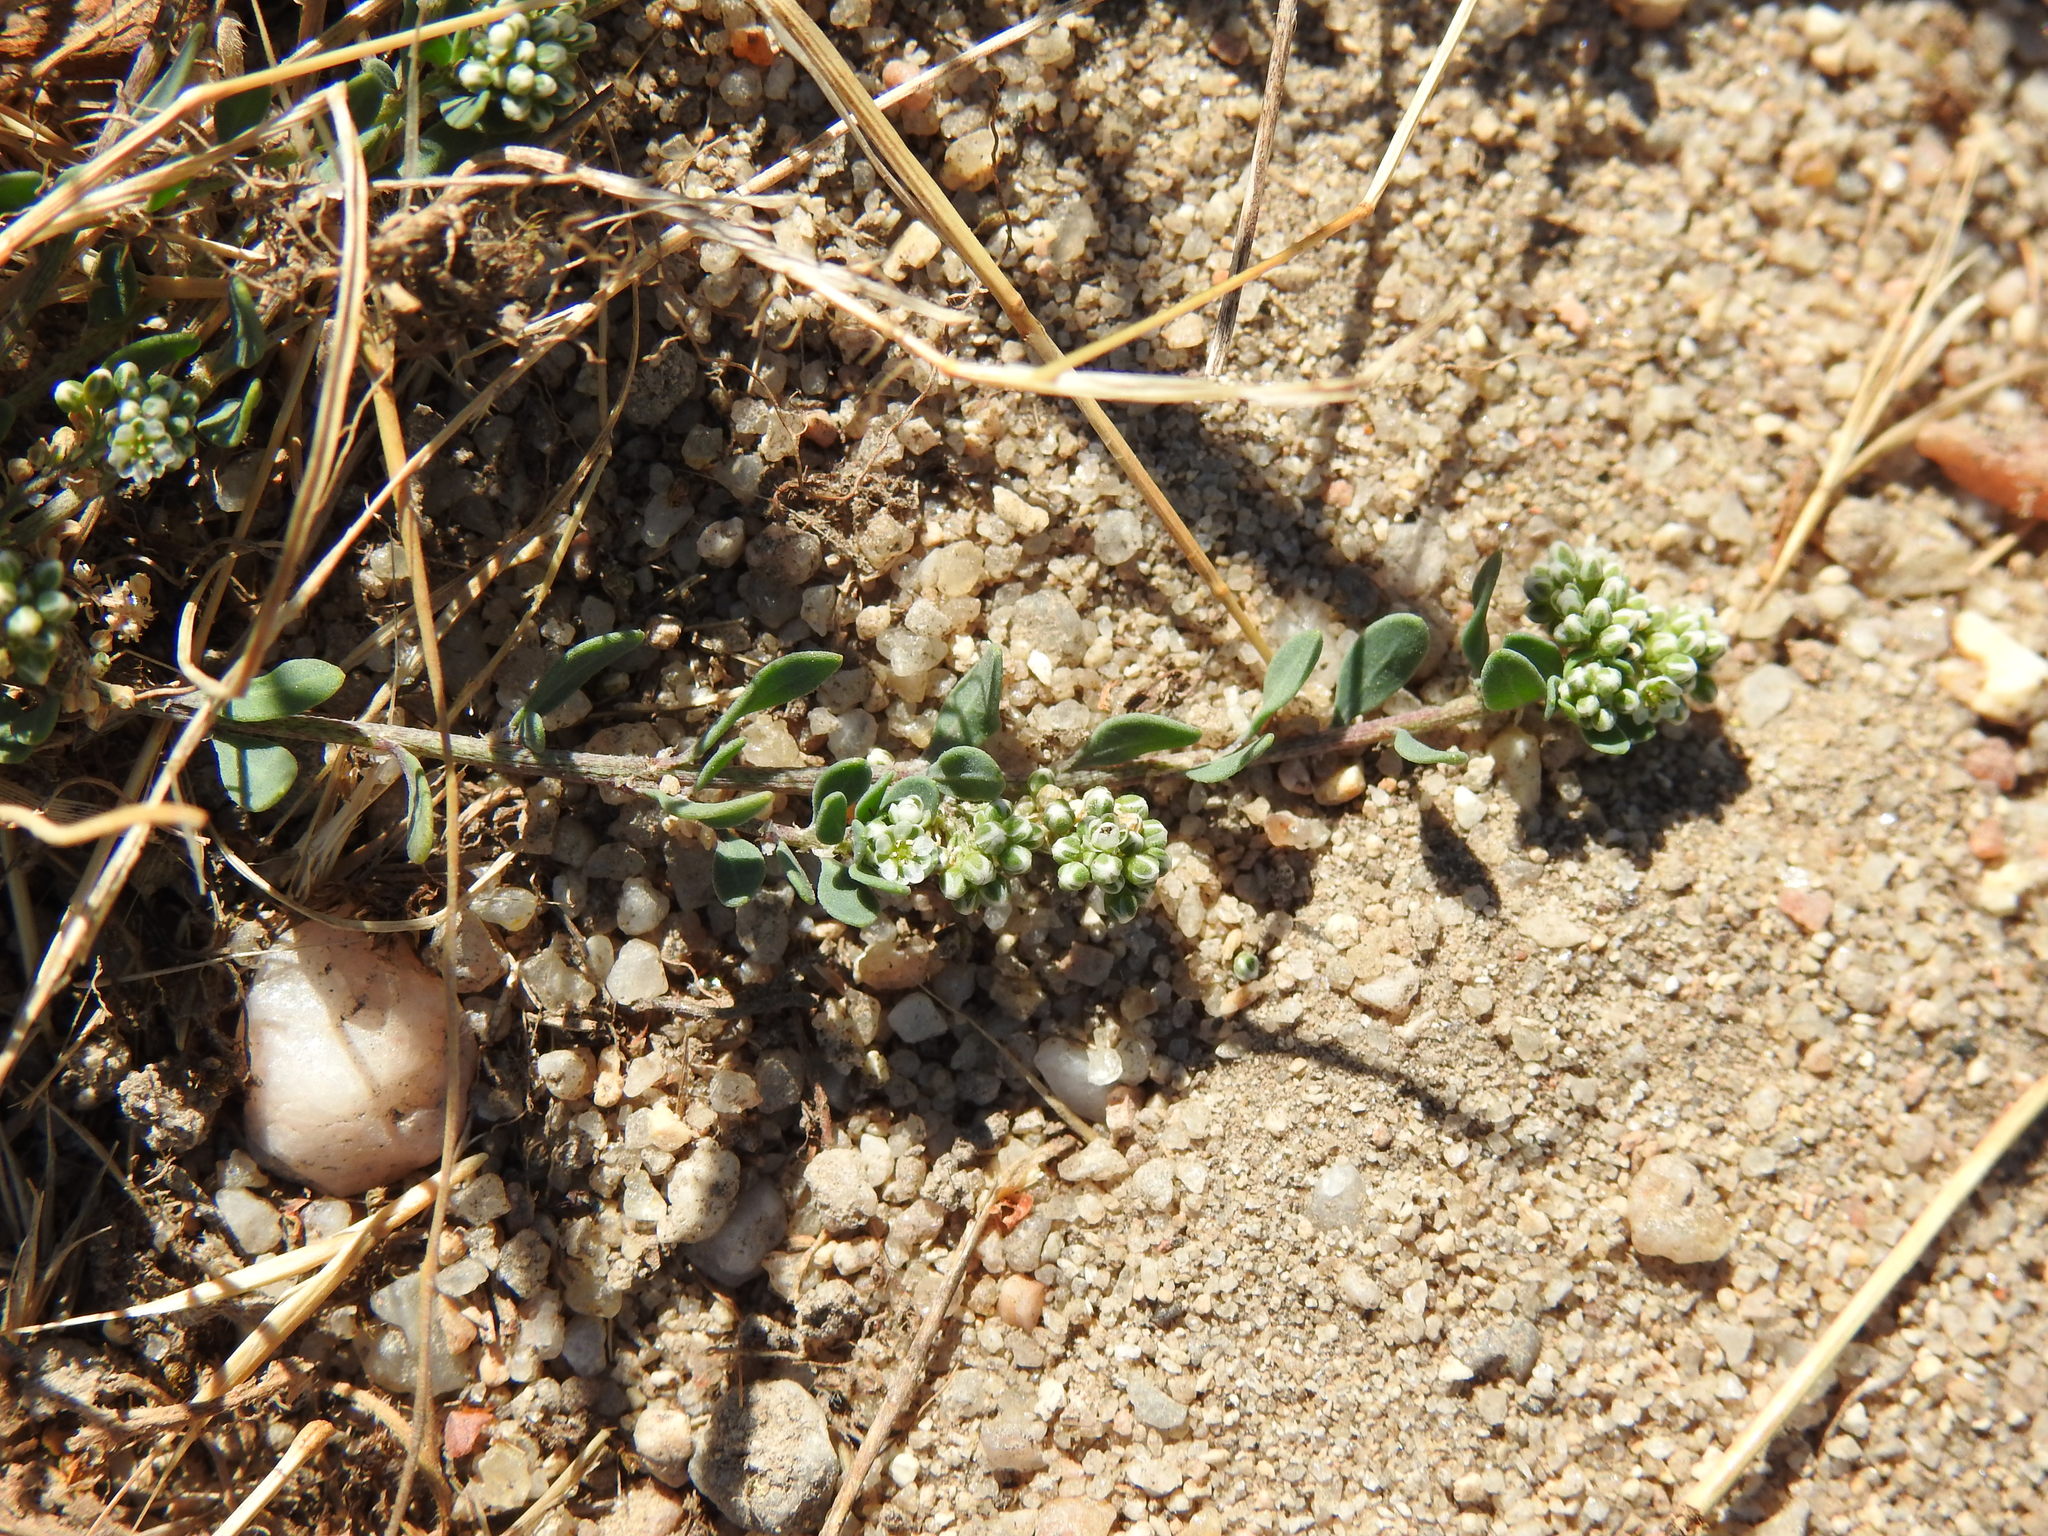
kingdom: Plantae
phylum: Tracheophyta
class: Magnoliopsida
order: Caryophyllales
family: Caryophyllaceae
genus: Corrigiola
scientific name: Corrigiola litoralis
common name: Strapwort
